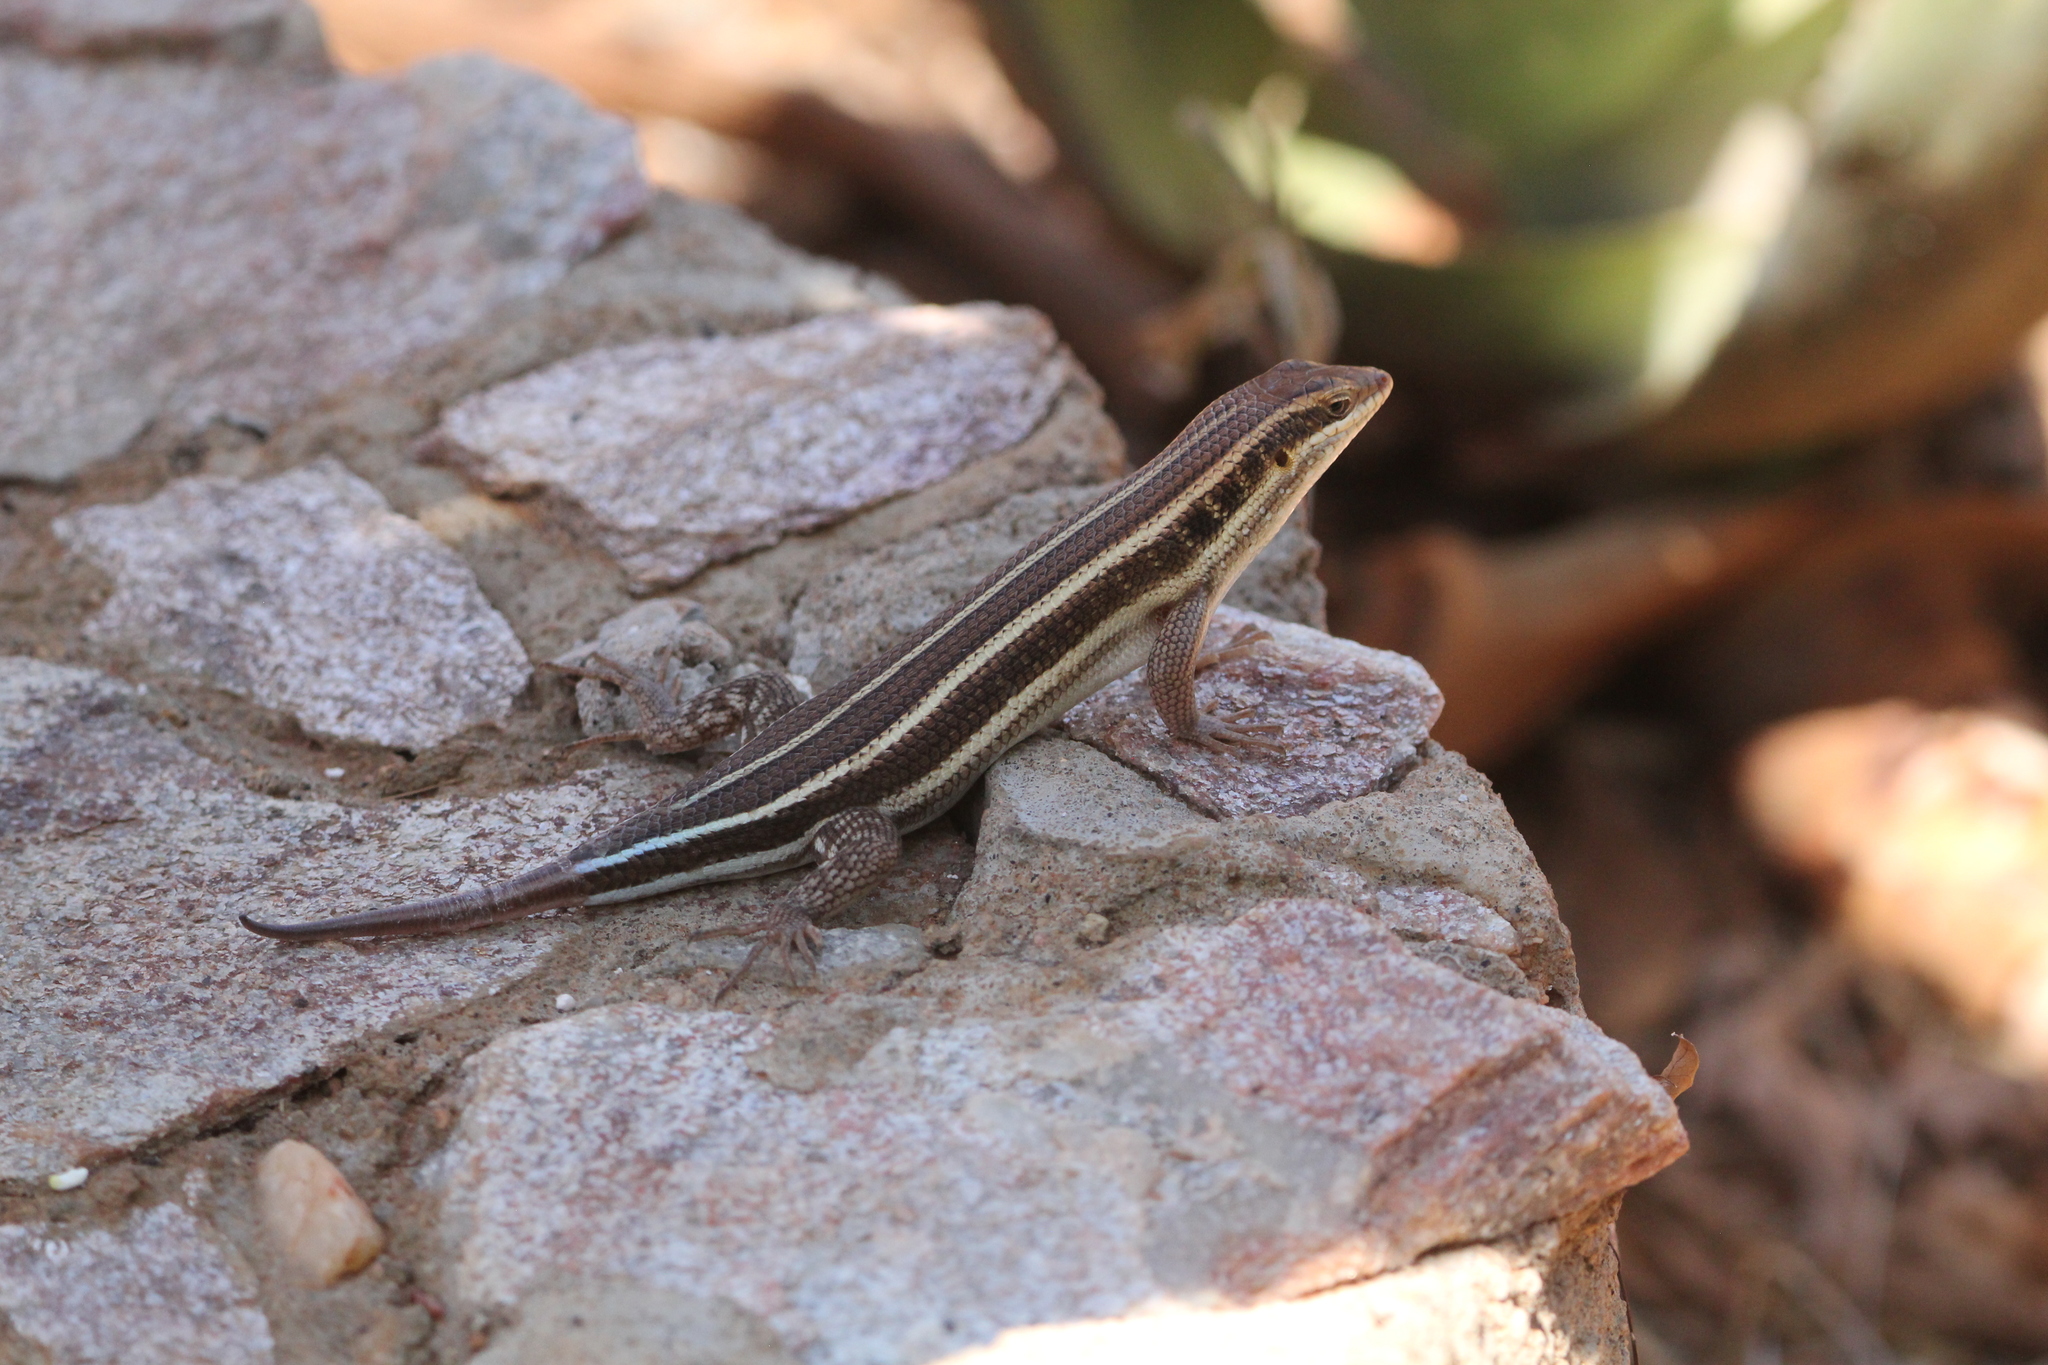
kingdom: Animalia
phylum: Chordata
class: Squamata
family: Scincidae
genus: Trachylepis
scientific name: Trachylepis quinquetaeniata
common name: African five-lined skink
